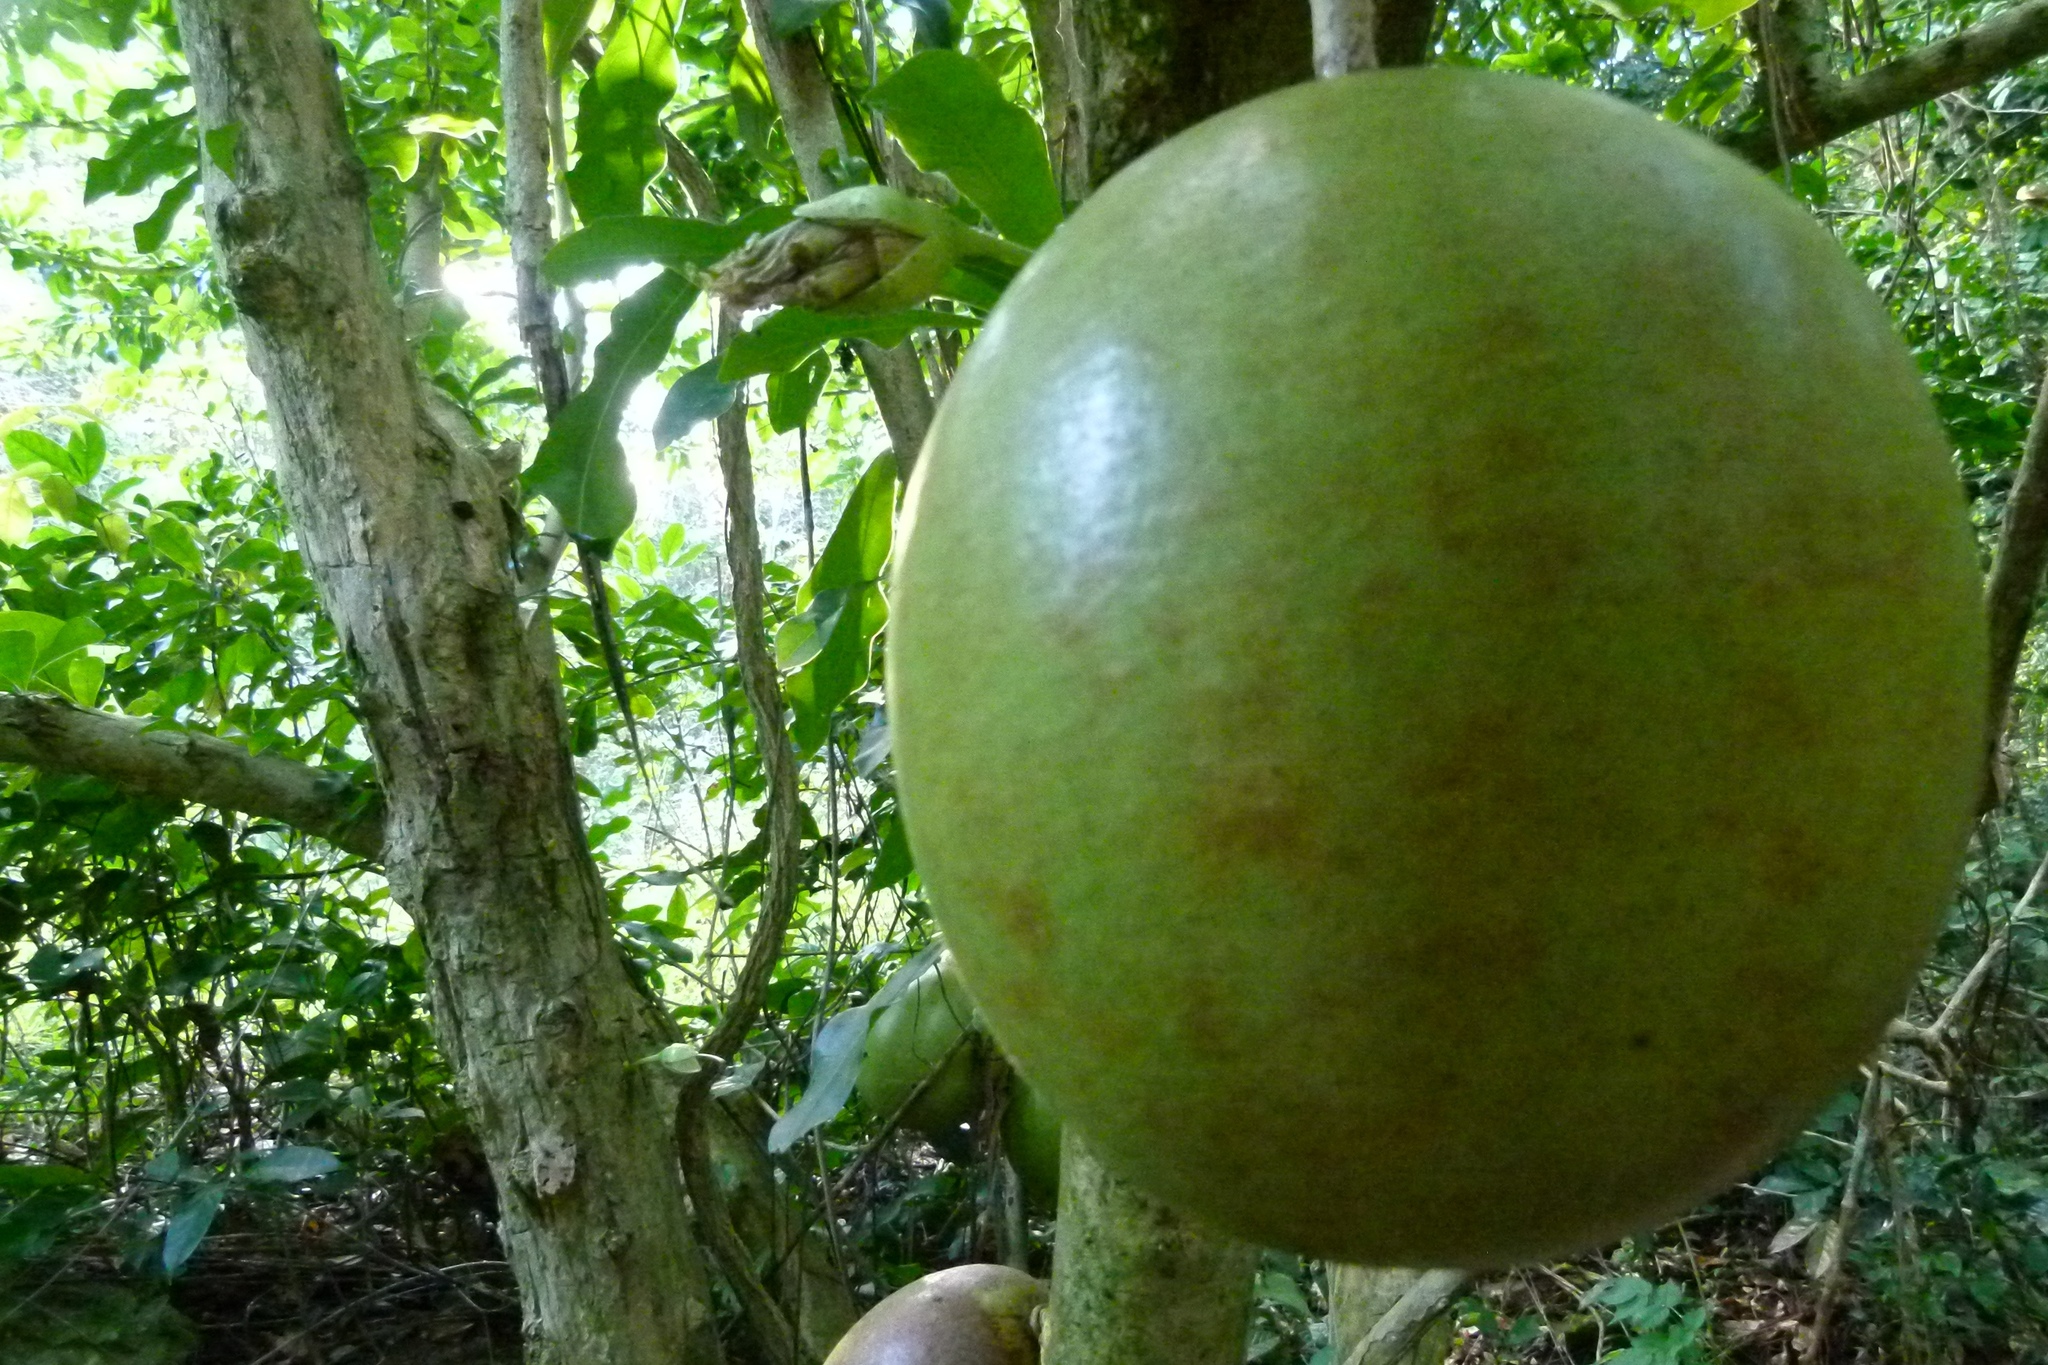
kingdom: Plantae
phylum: Tracheophyta
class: Magnoliopsida
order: Lamiales
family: Bignoniaceae
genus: Crescentia
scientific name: Crescentia cujete
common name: Calabash
